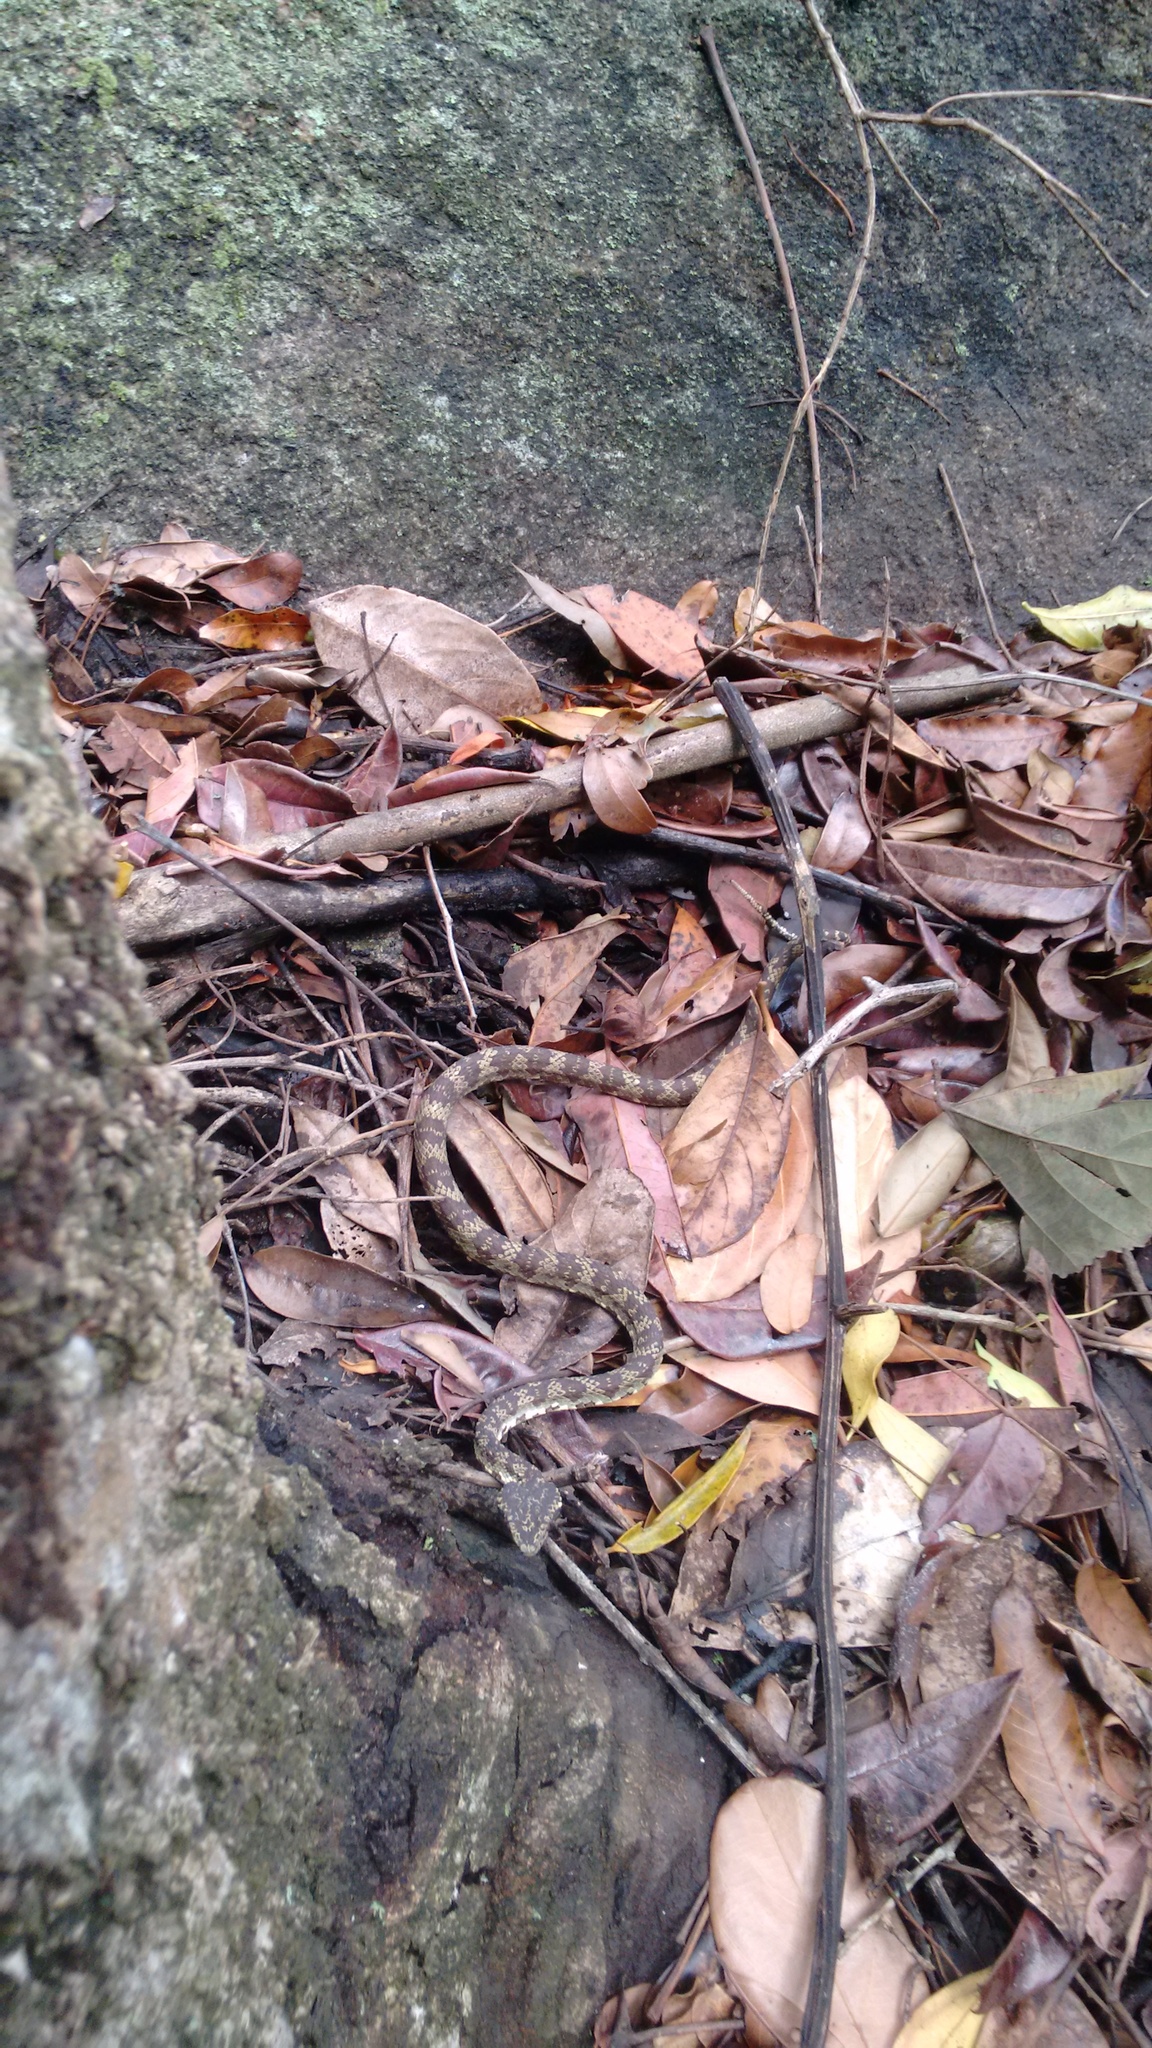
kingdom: Animalia
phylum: Chordata
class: Squamata
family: Viperidae
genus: Craspedocephalus
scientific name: Craspedocephalus travancoricus
